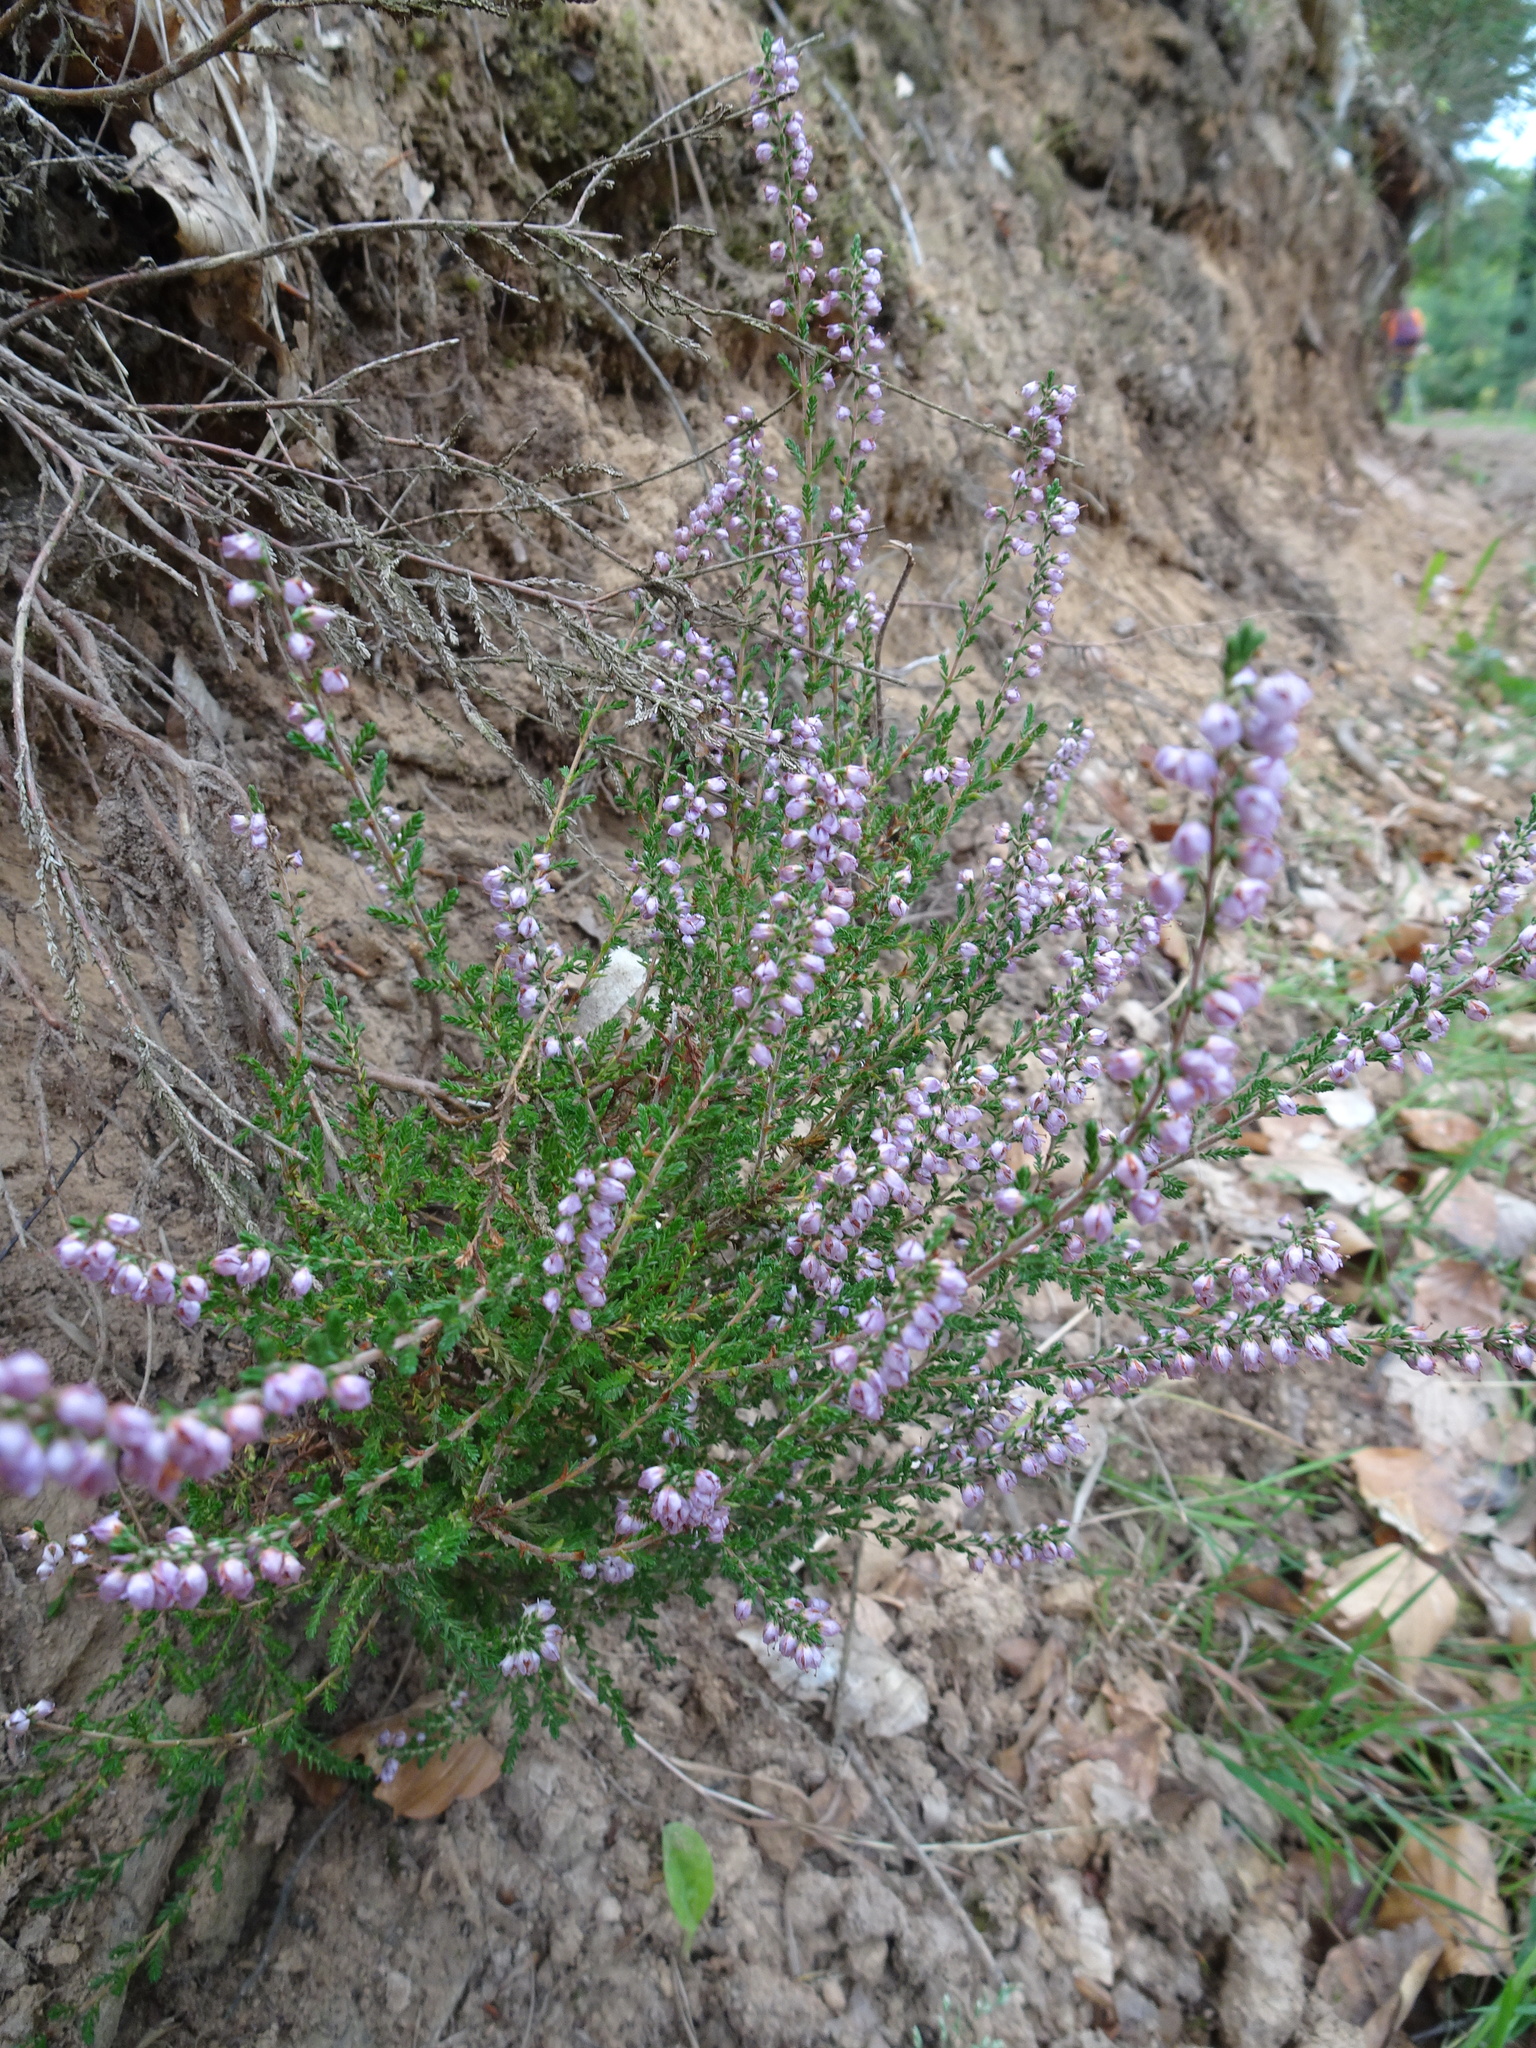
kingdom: Plantae
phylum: Tracheophyta
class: Magnoliopsida
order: Ericales
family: Ericaceae
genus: Calluna
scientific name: Calluna vulgaris
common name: Heather
